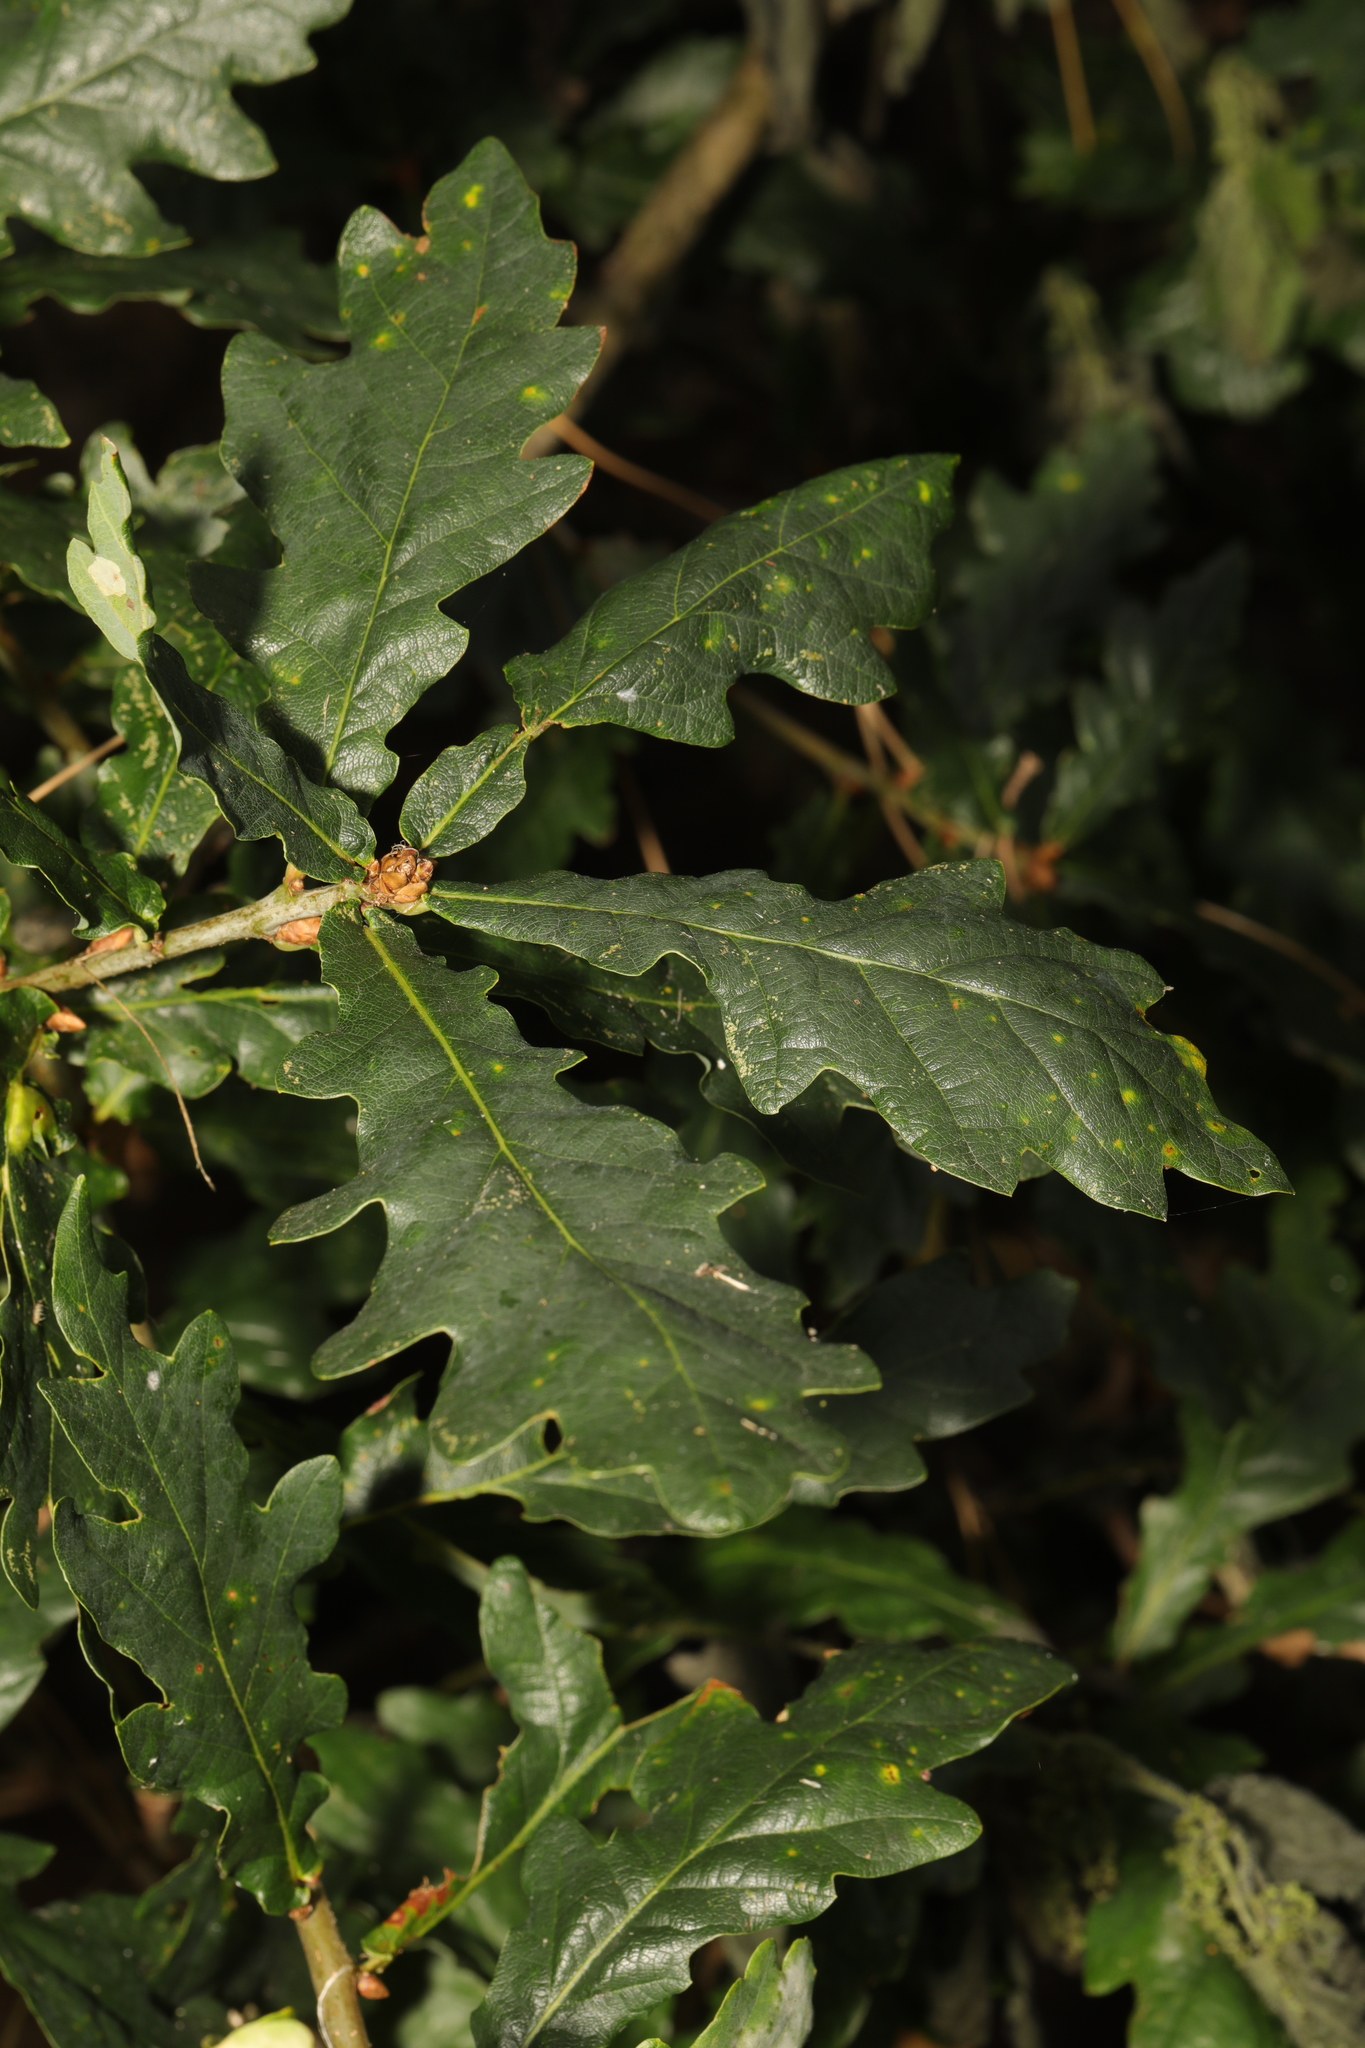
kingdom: Plantae
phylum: Tracheophyta
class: Magnoliopsida
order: Fagales
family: Fagaceae
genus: Quercus
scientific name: Quercus robur
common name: Pedunculate oak
